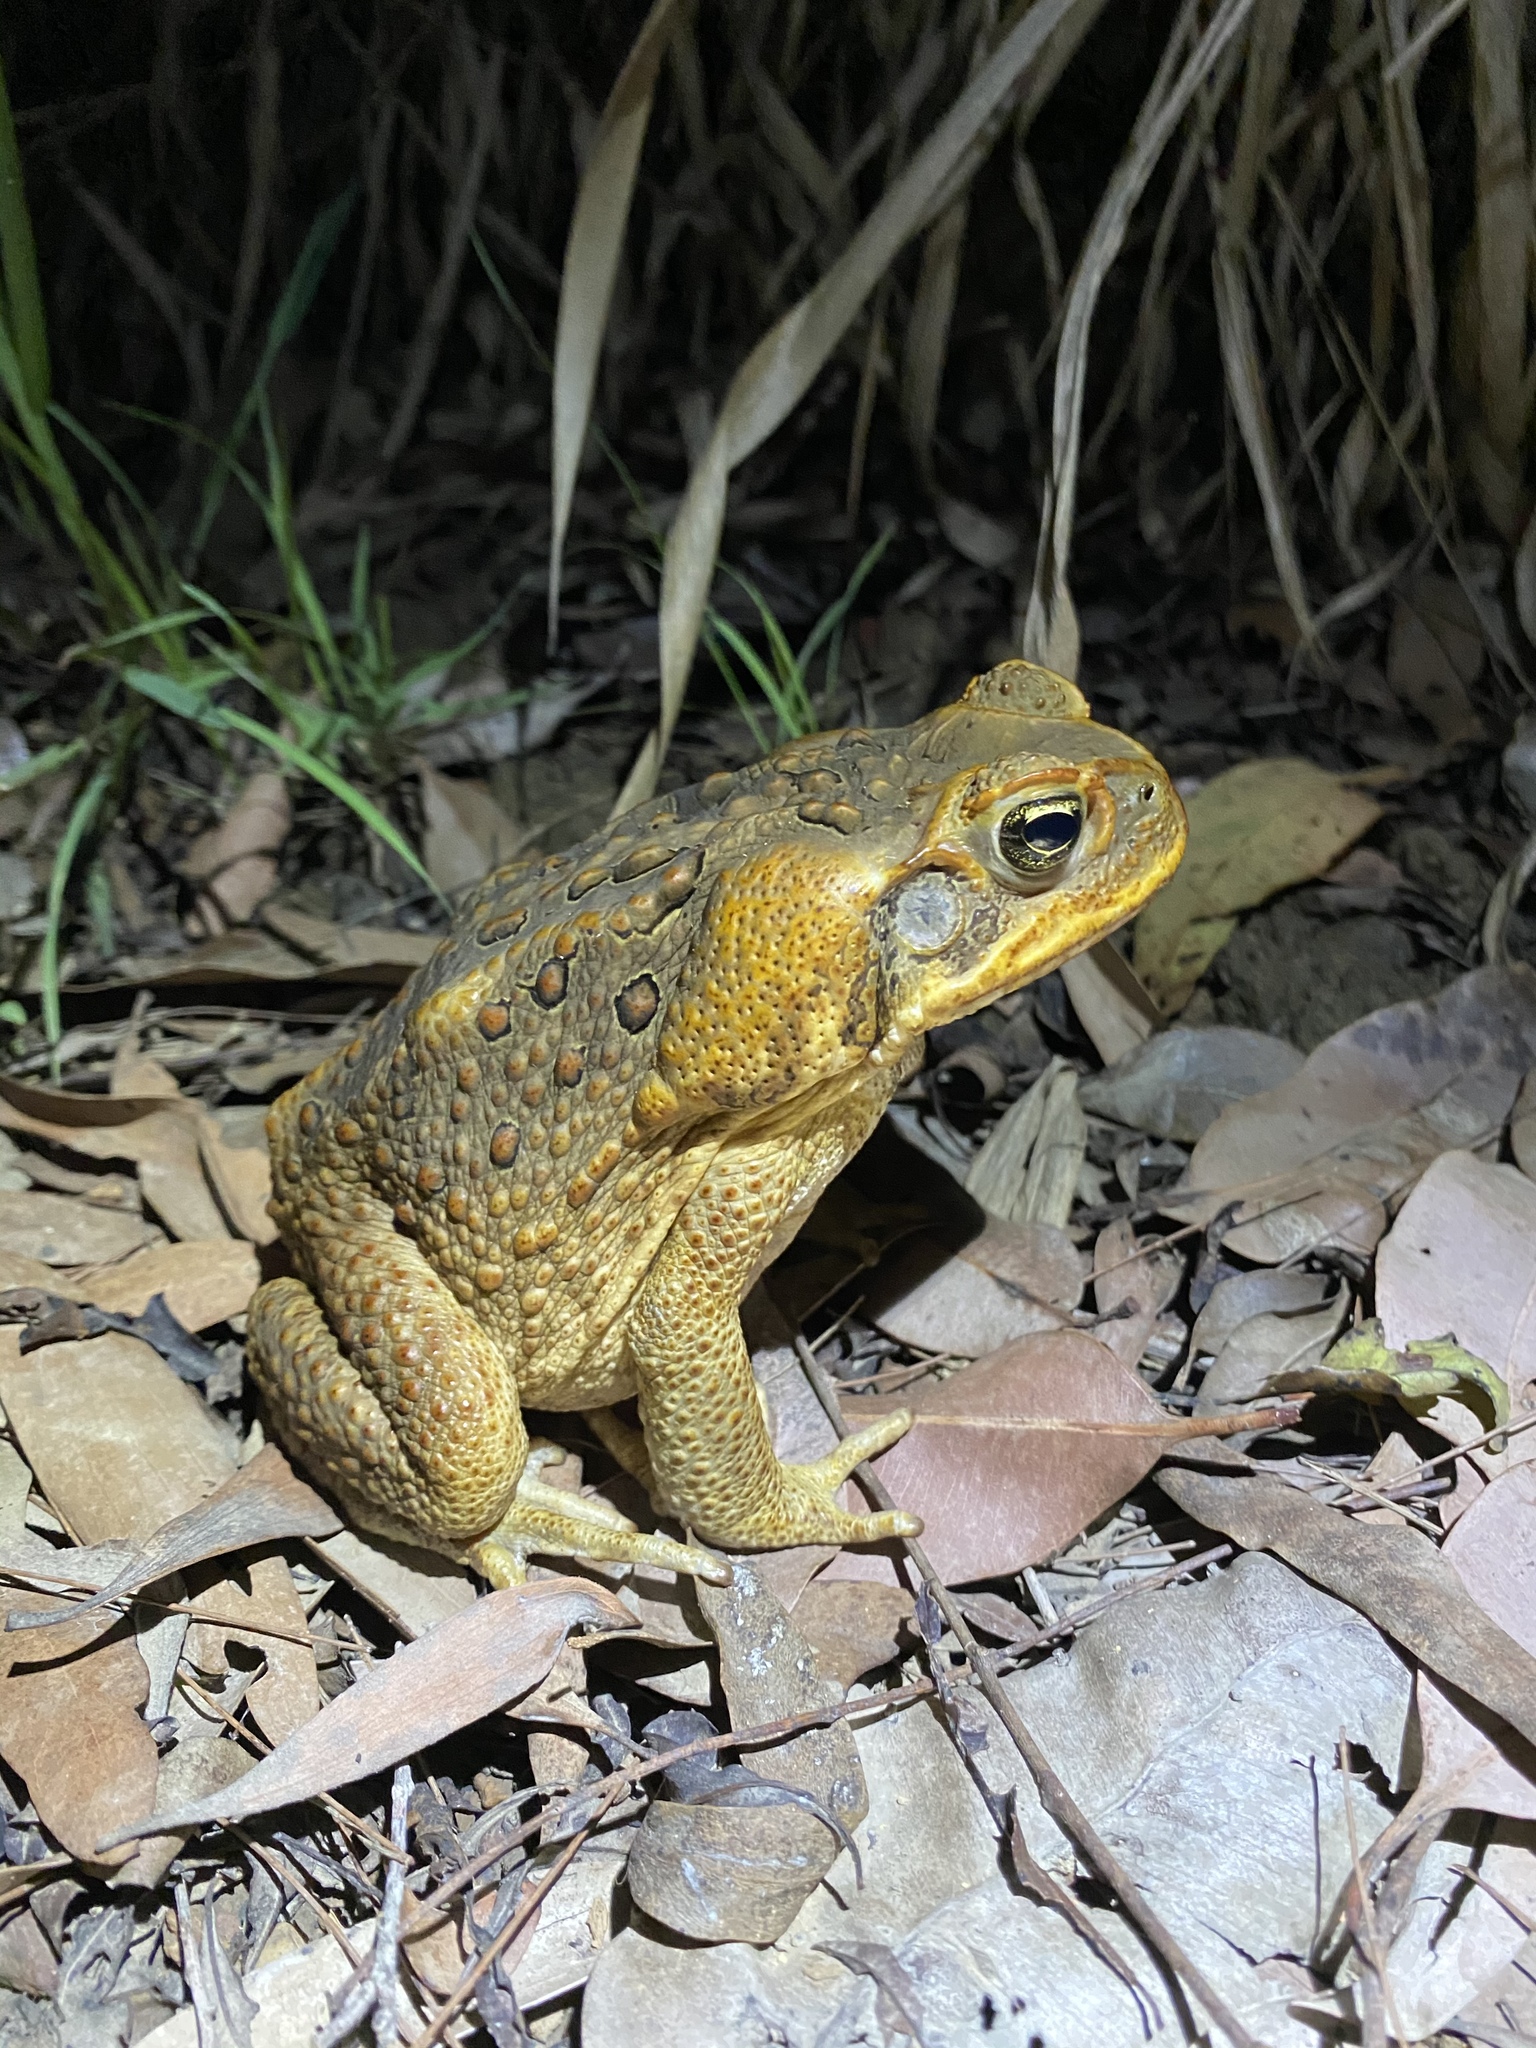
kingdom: Animalia
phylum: Chordata
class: Amphibia
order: Anura
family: Bufonidae
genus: Rhinella
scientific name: Rhinella marina
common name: Cane toad
